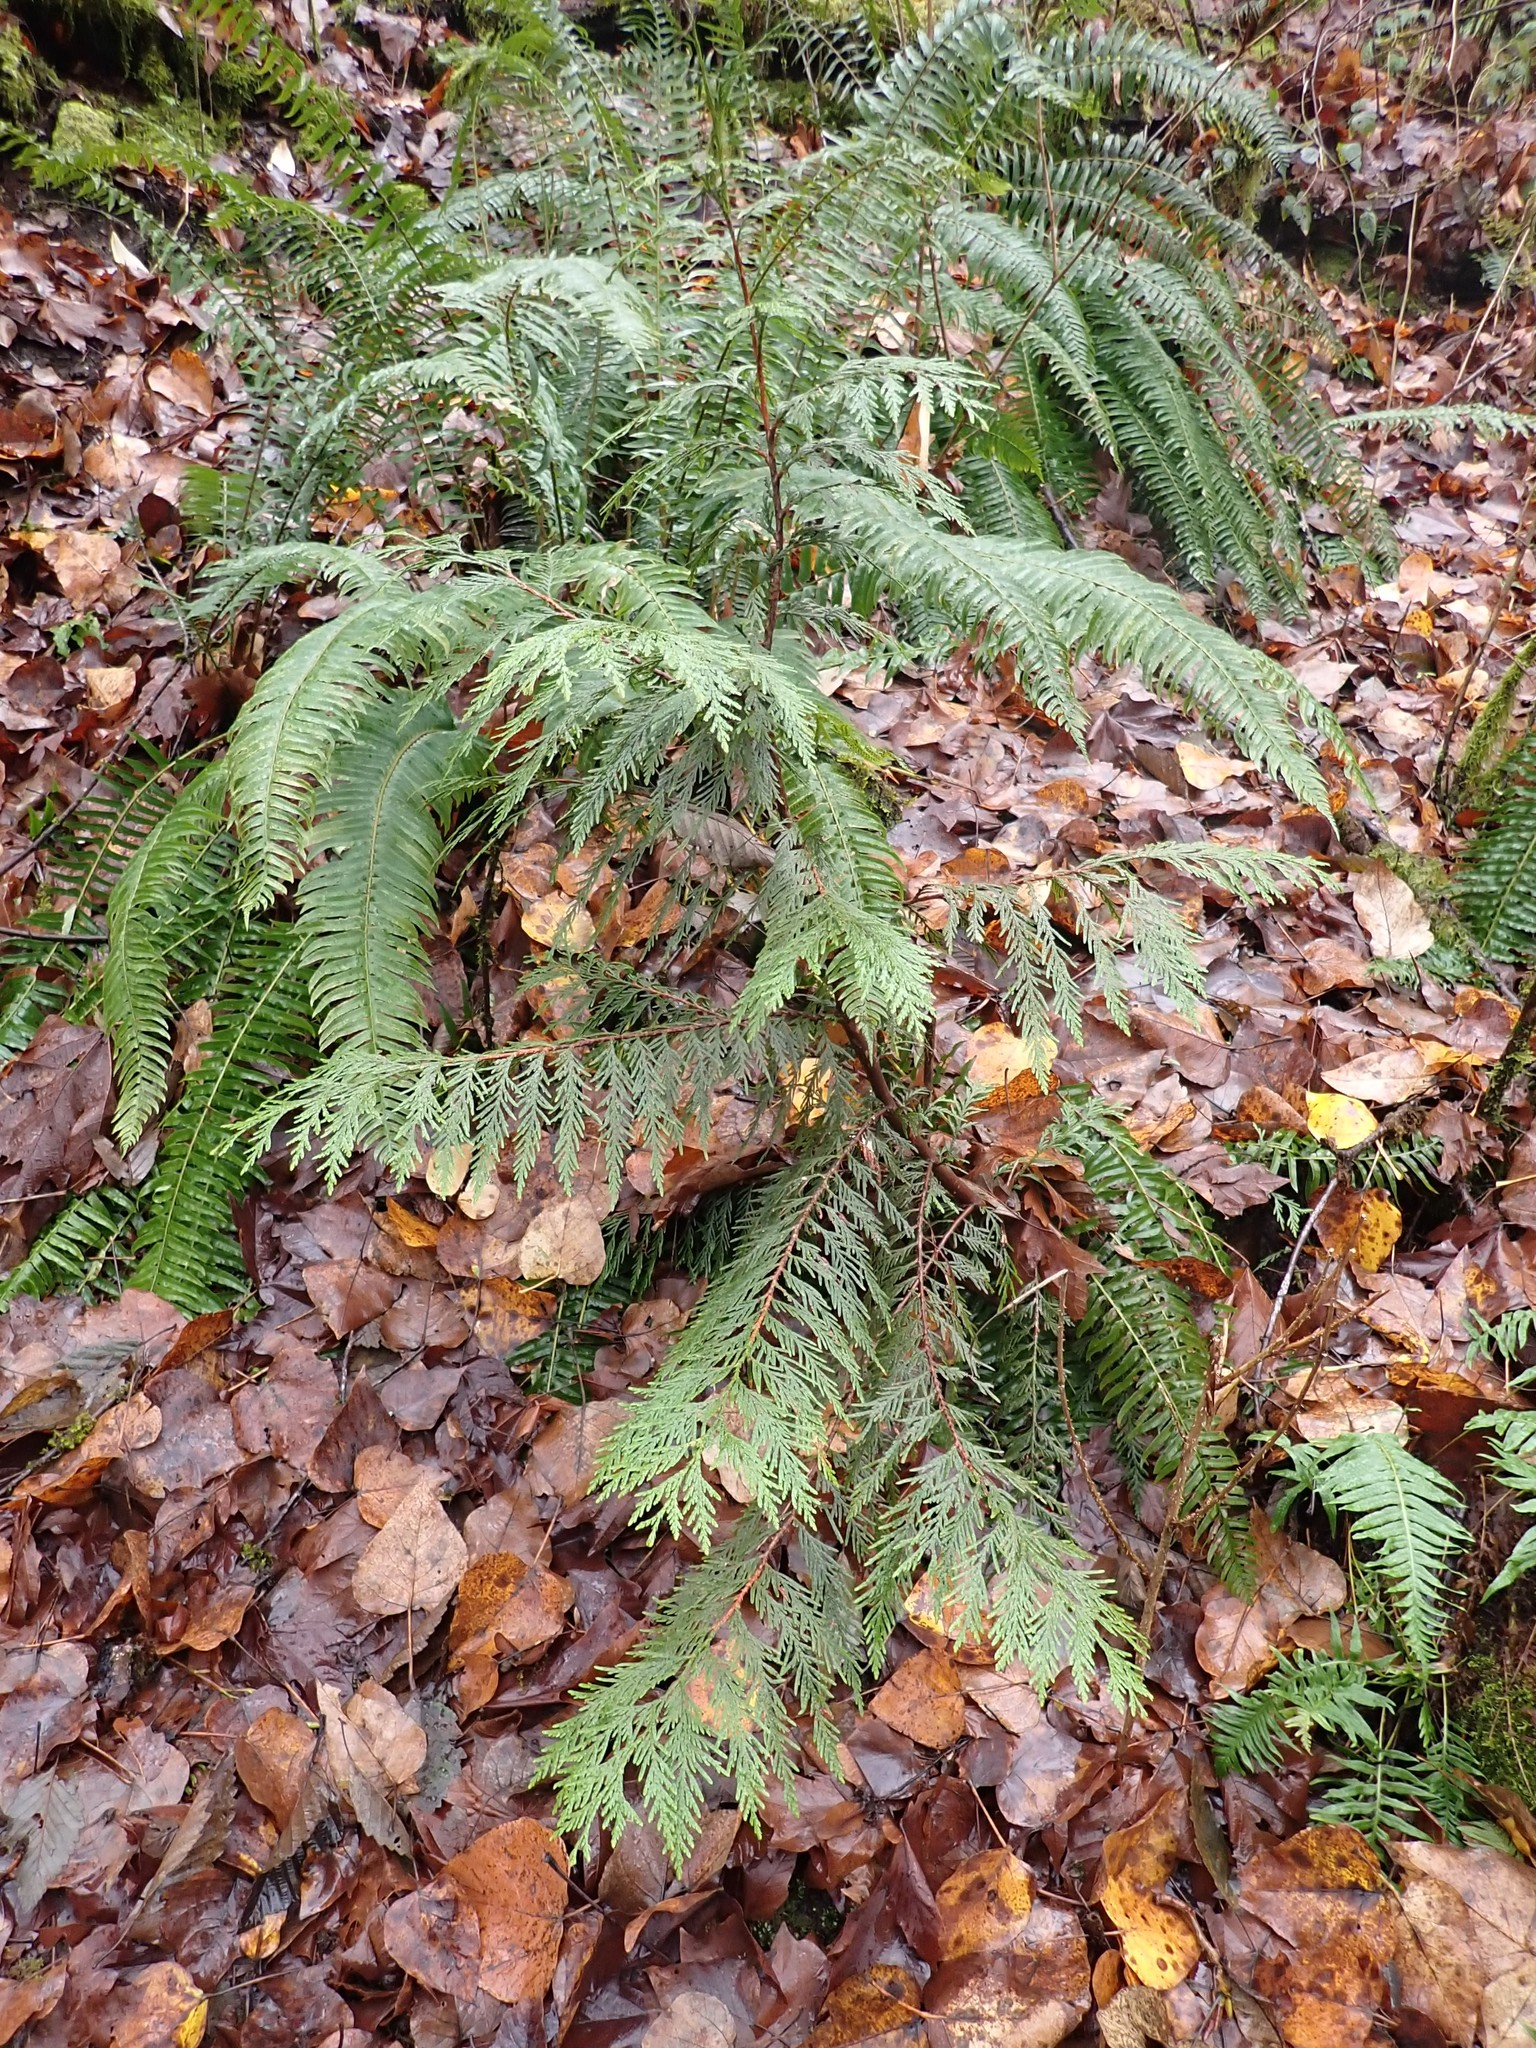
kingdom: Plantae
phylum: Tracheophyta
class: Pinopsida
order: Pinales
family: Cupressaceae
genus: Thuja
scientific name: Thuja plicata
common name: Western red-cedar
